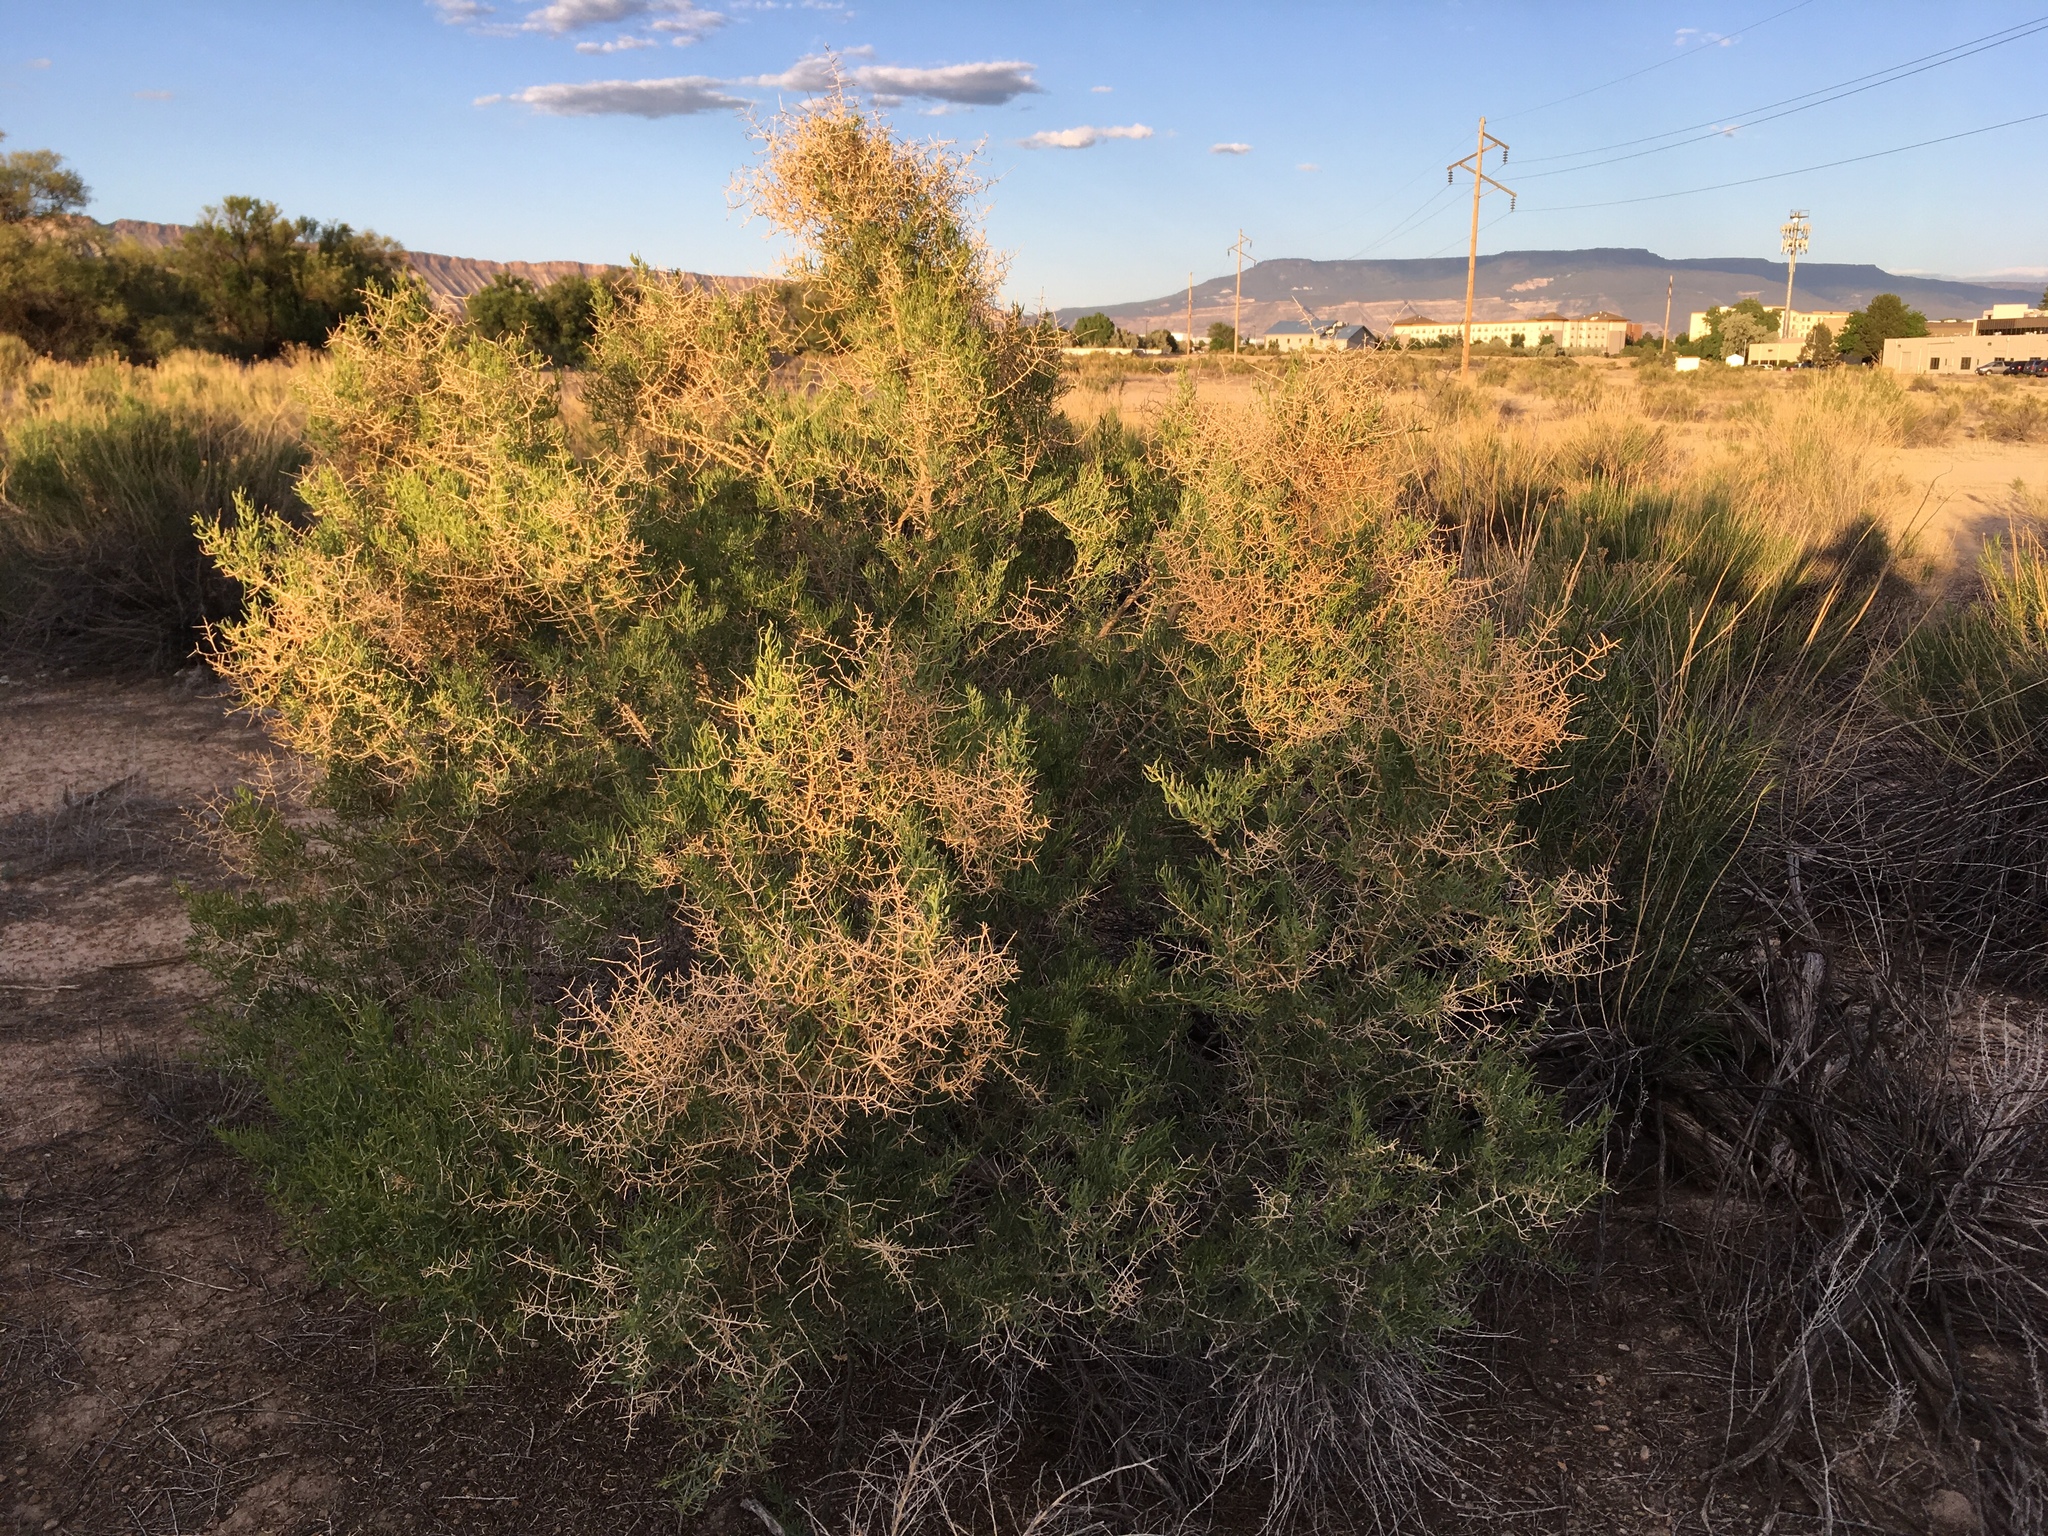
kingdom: Plantae
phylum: Tracheophyta
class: Magnoliopsida
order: Caryophyllales
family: Sarcobataceae
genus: Sarcobatus
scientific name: Sarcobatus vermiculatus
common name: Greasewood
